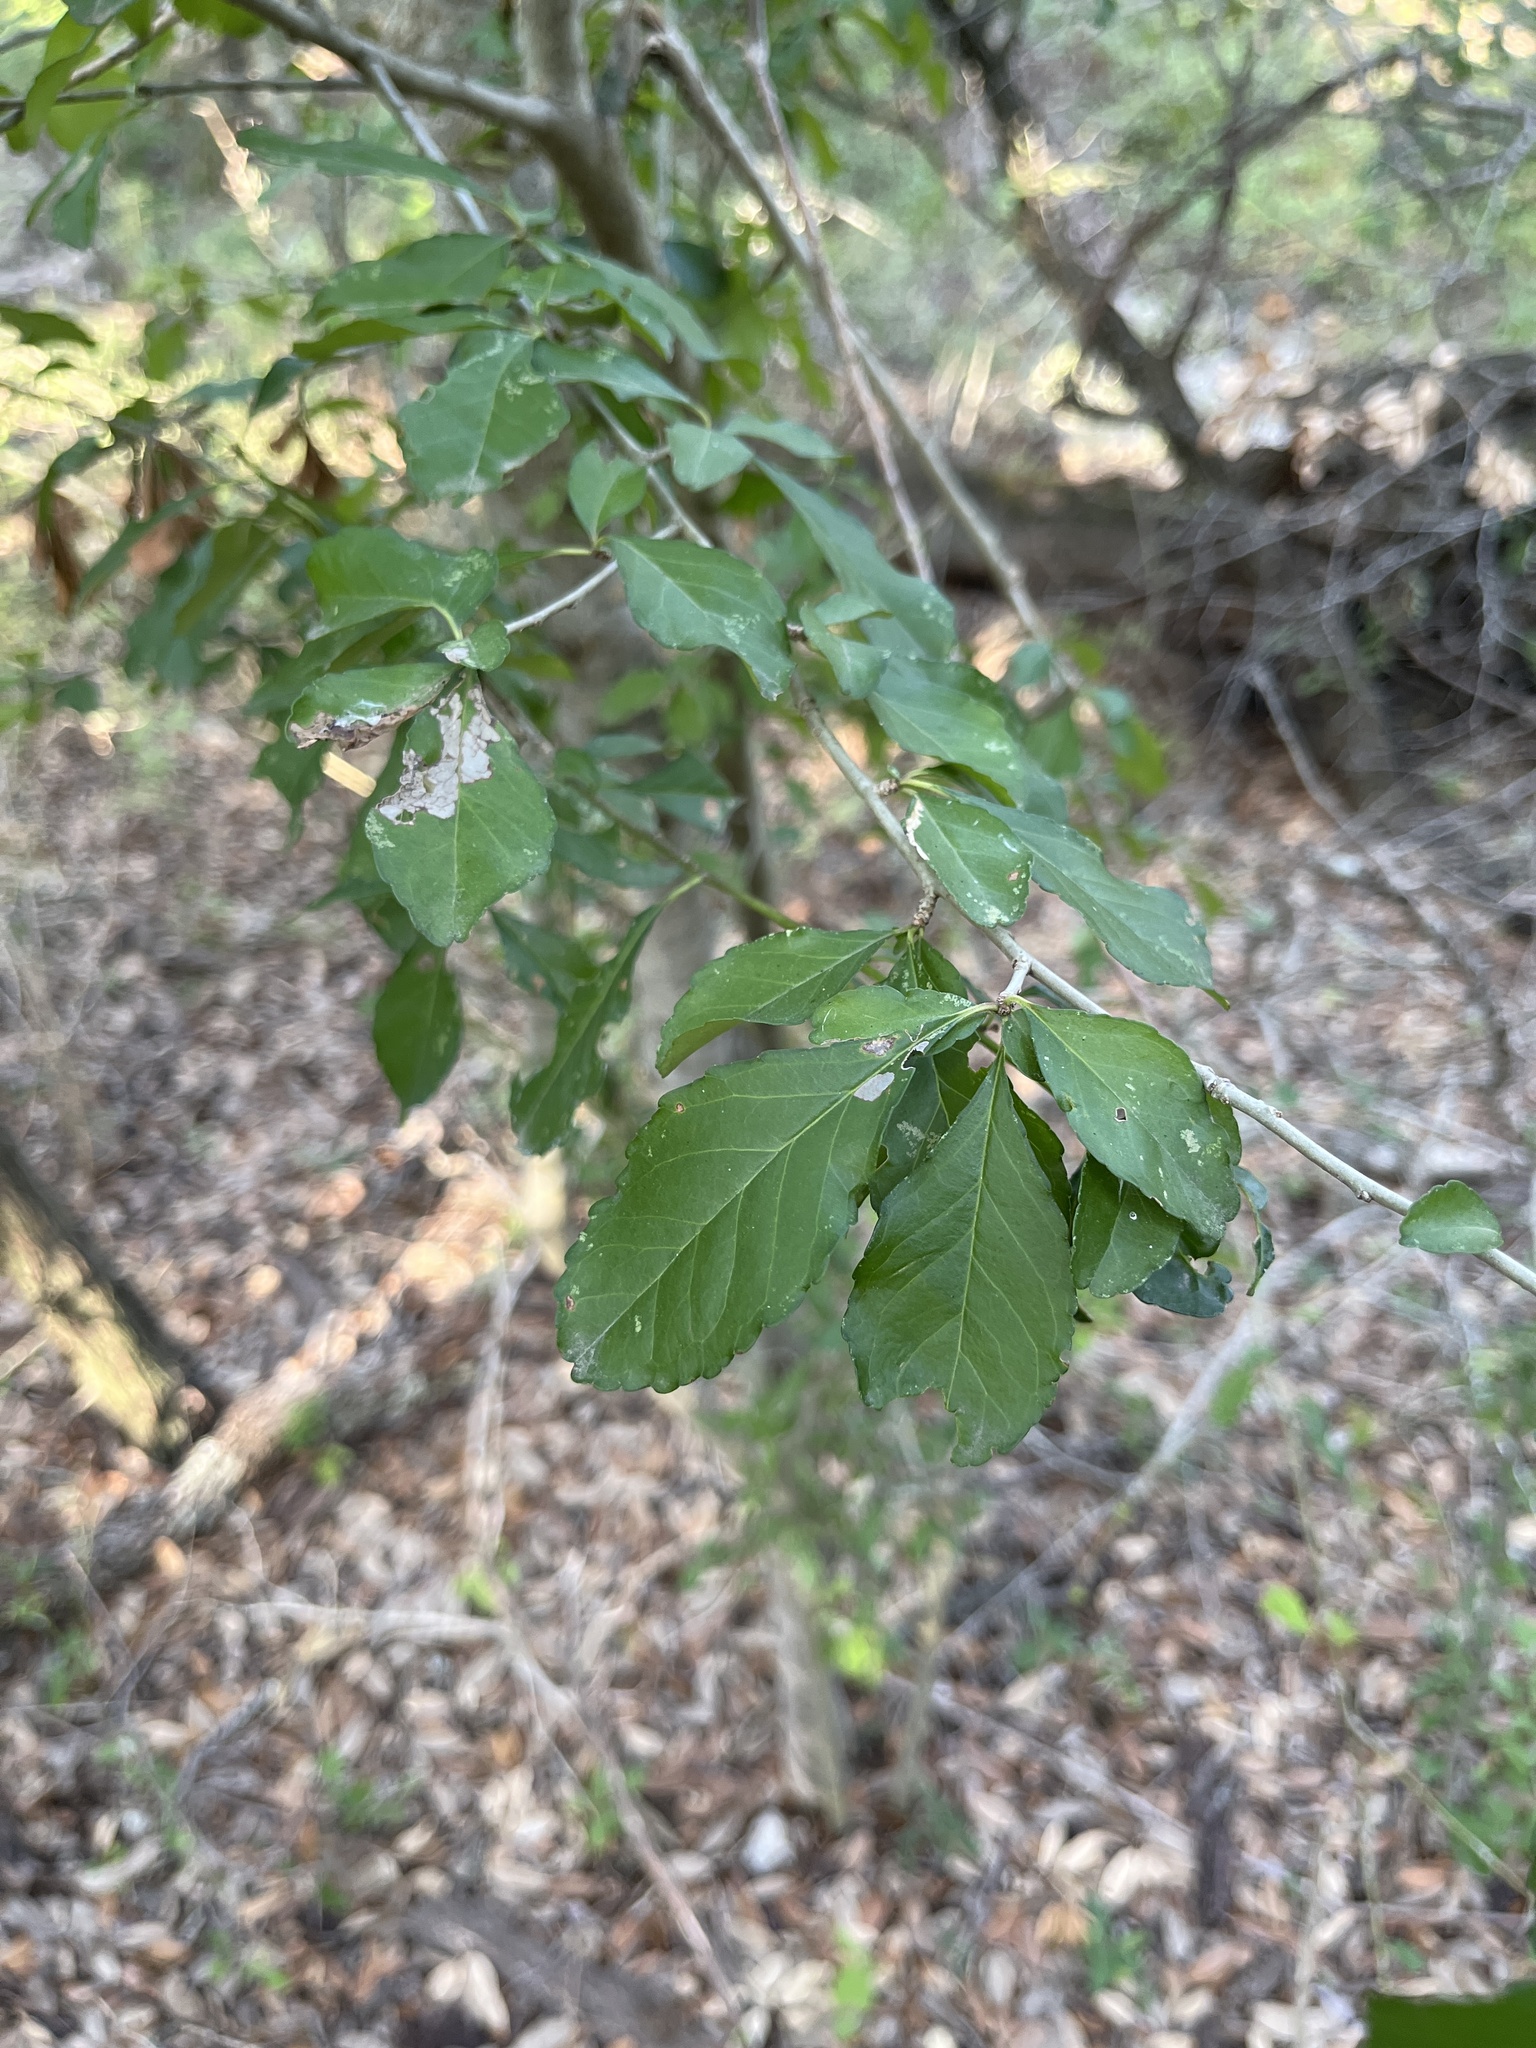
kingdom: Plantae
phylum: Tracheophyta
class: Magnoliopsida
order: Aquifoliales
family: Aquifoliaceae
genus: Ilex
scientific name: Ilex decidua
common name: Possum-haw
